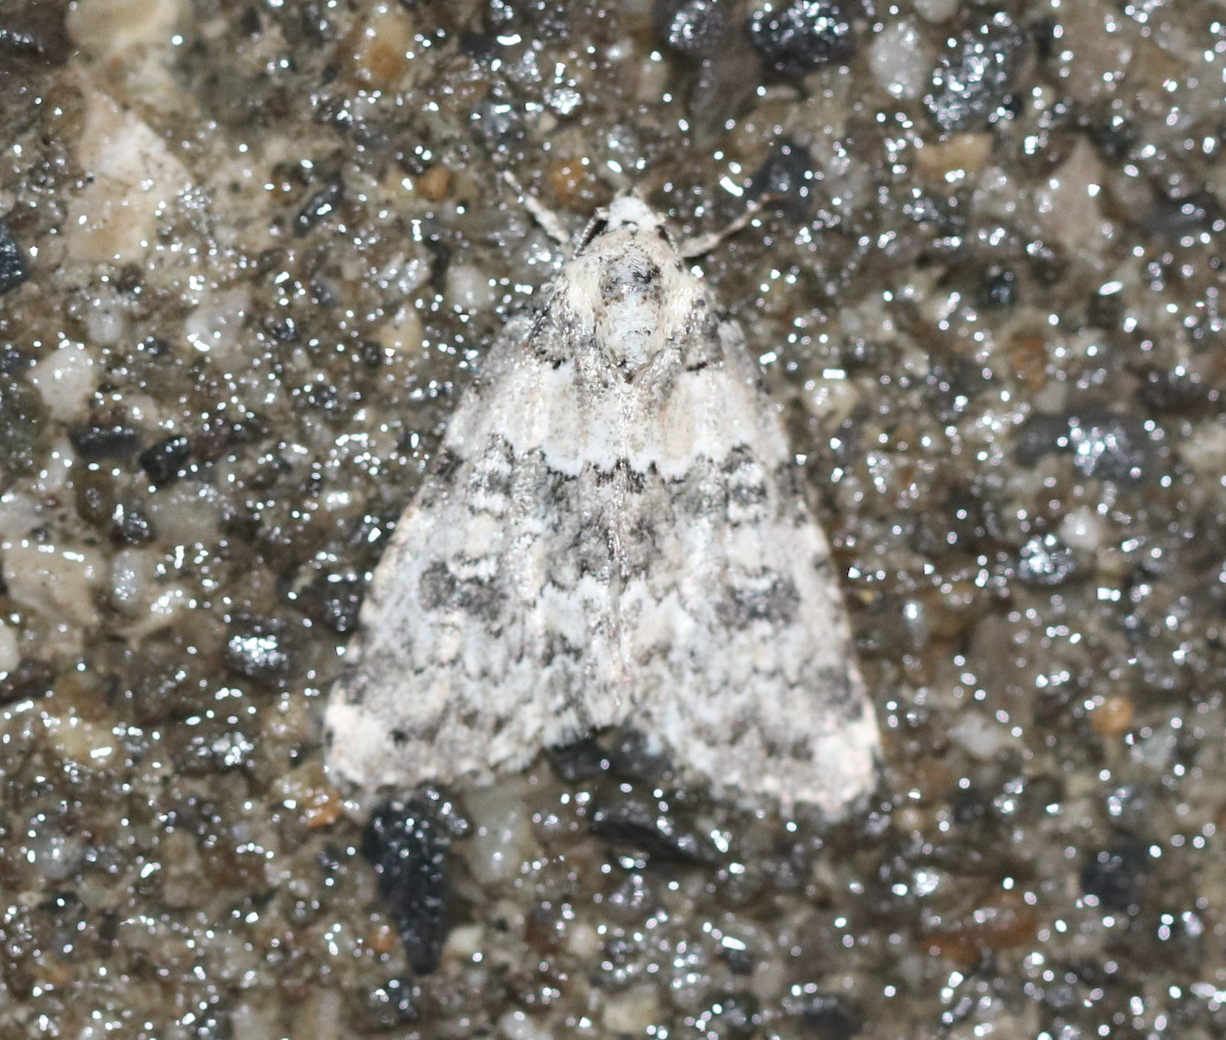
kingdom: Animalia
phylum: Arthropoda
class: Insecta
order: Lepidoptera
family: Noctuidae
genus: Bryophila
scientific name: Bryophila domestica
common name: Marbled beauty
